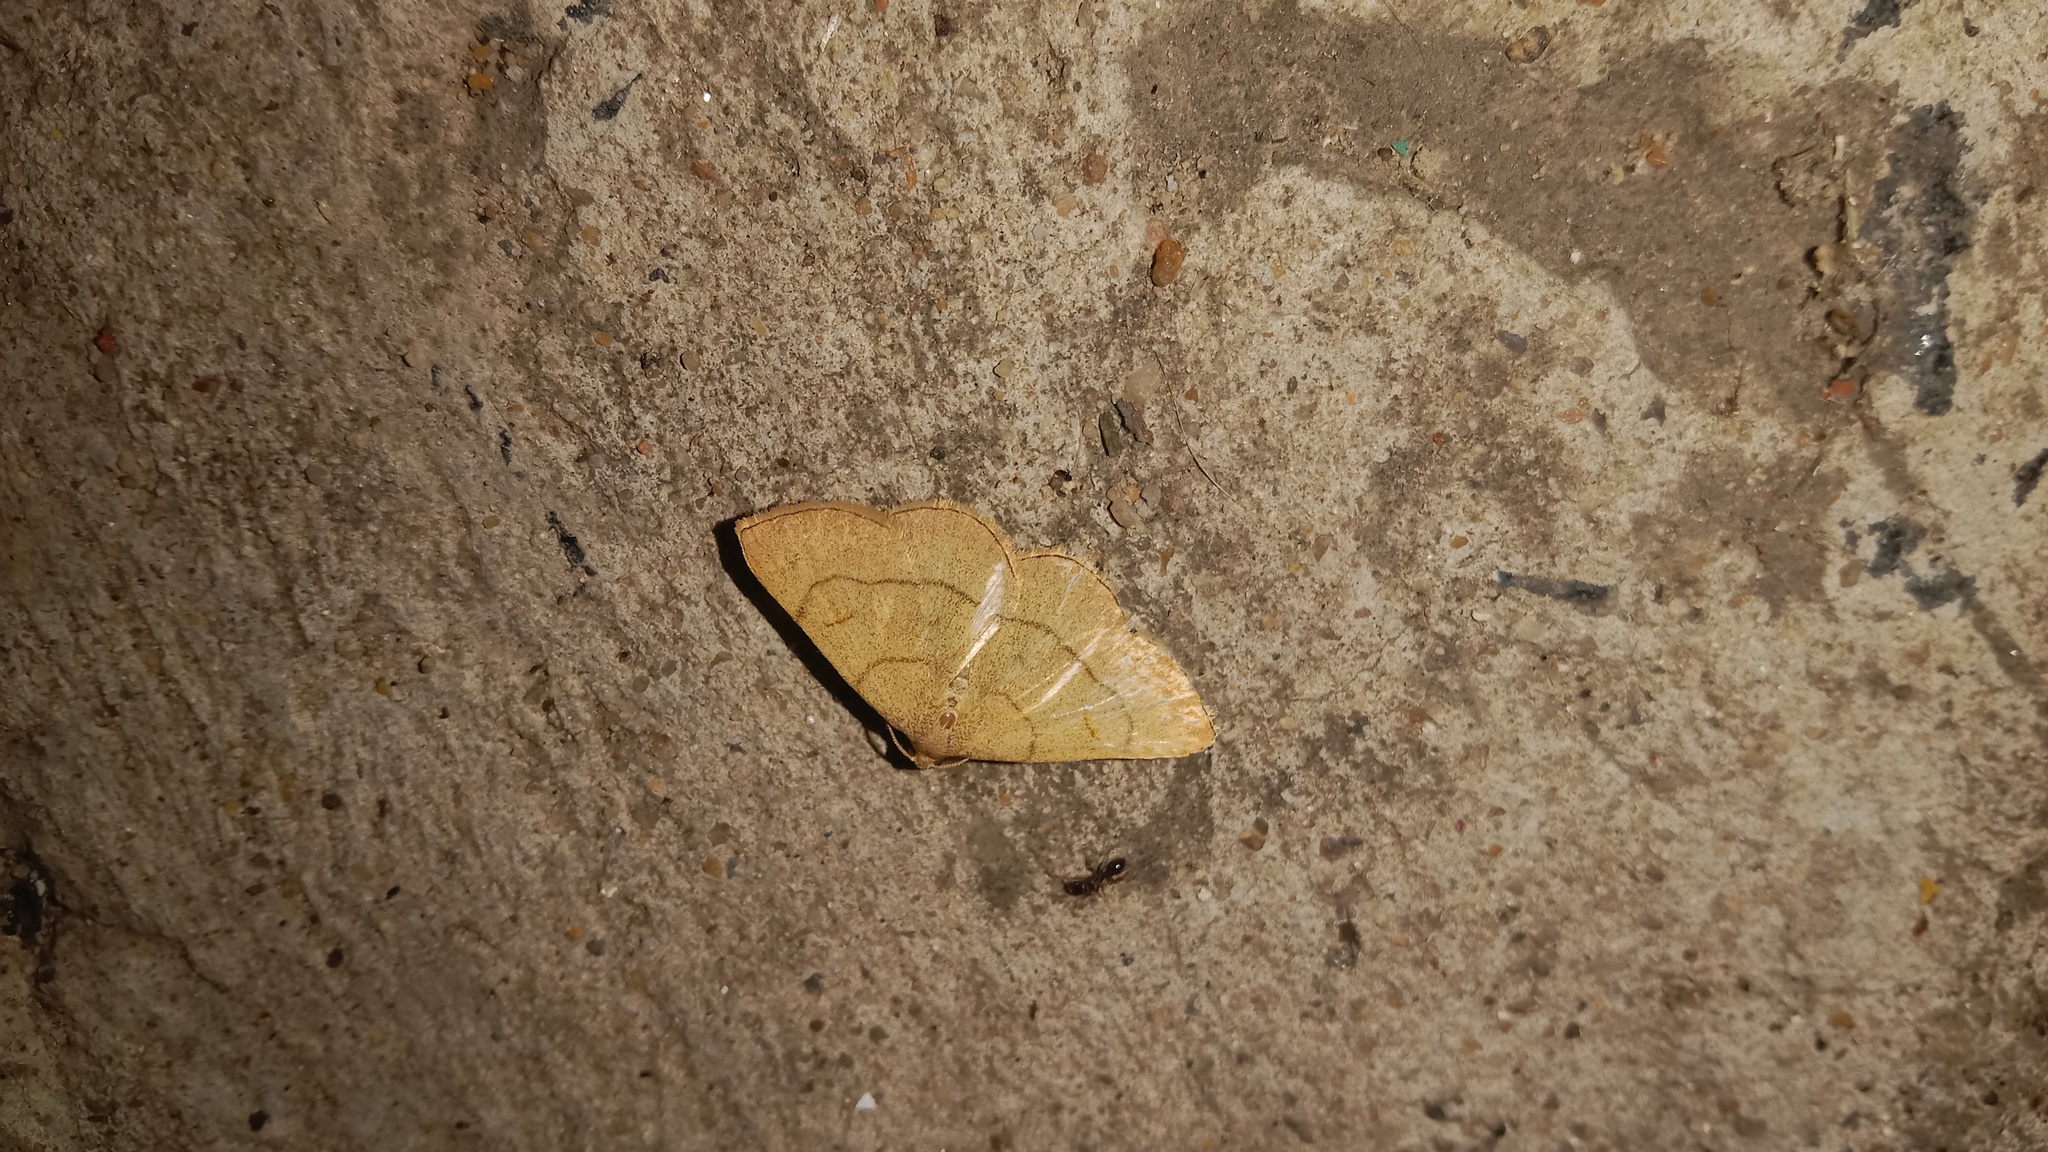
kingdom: Animalia
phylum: Arthropoda
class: Insecta
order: Lepidoptera
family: Erebidae
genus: Paracolax
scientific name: Paracolax tristalis
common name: Clay fan-foot
